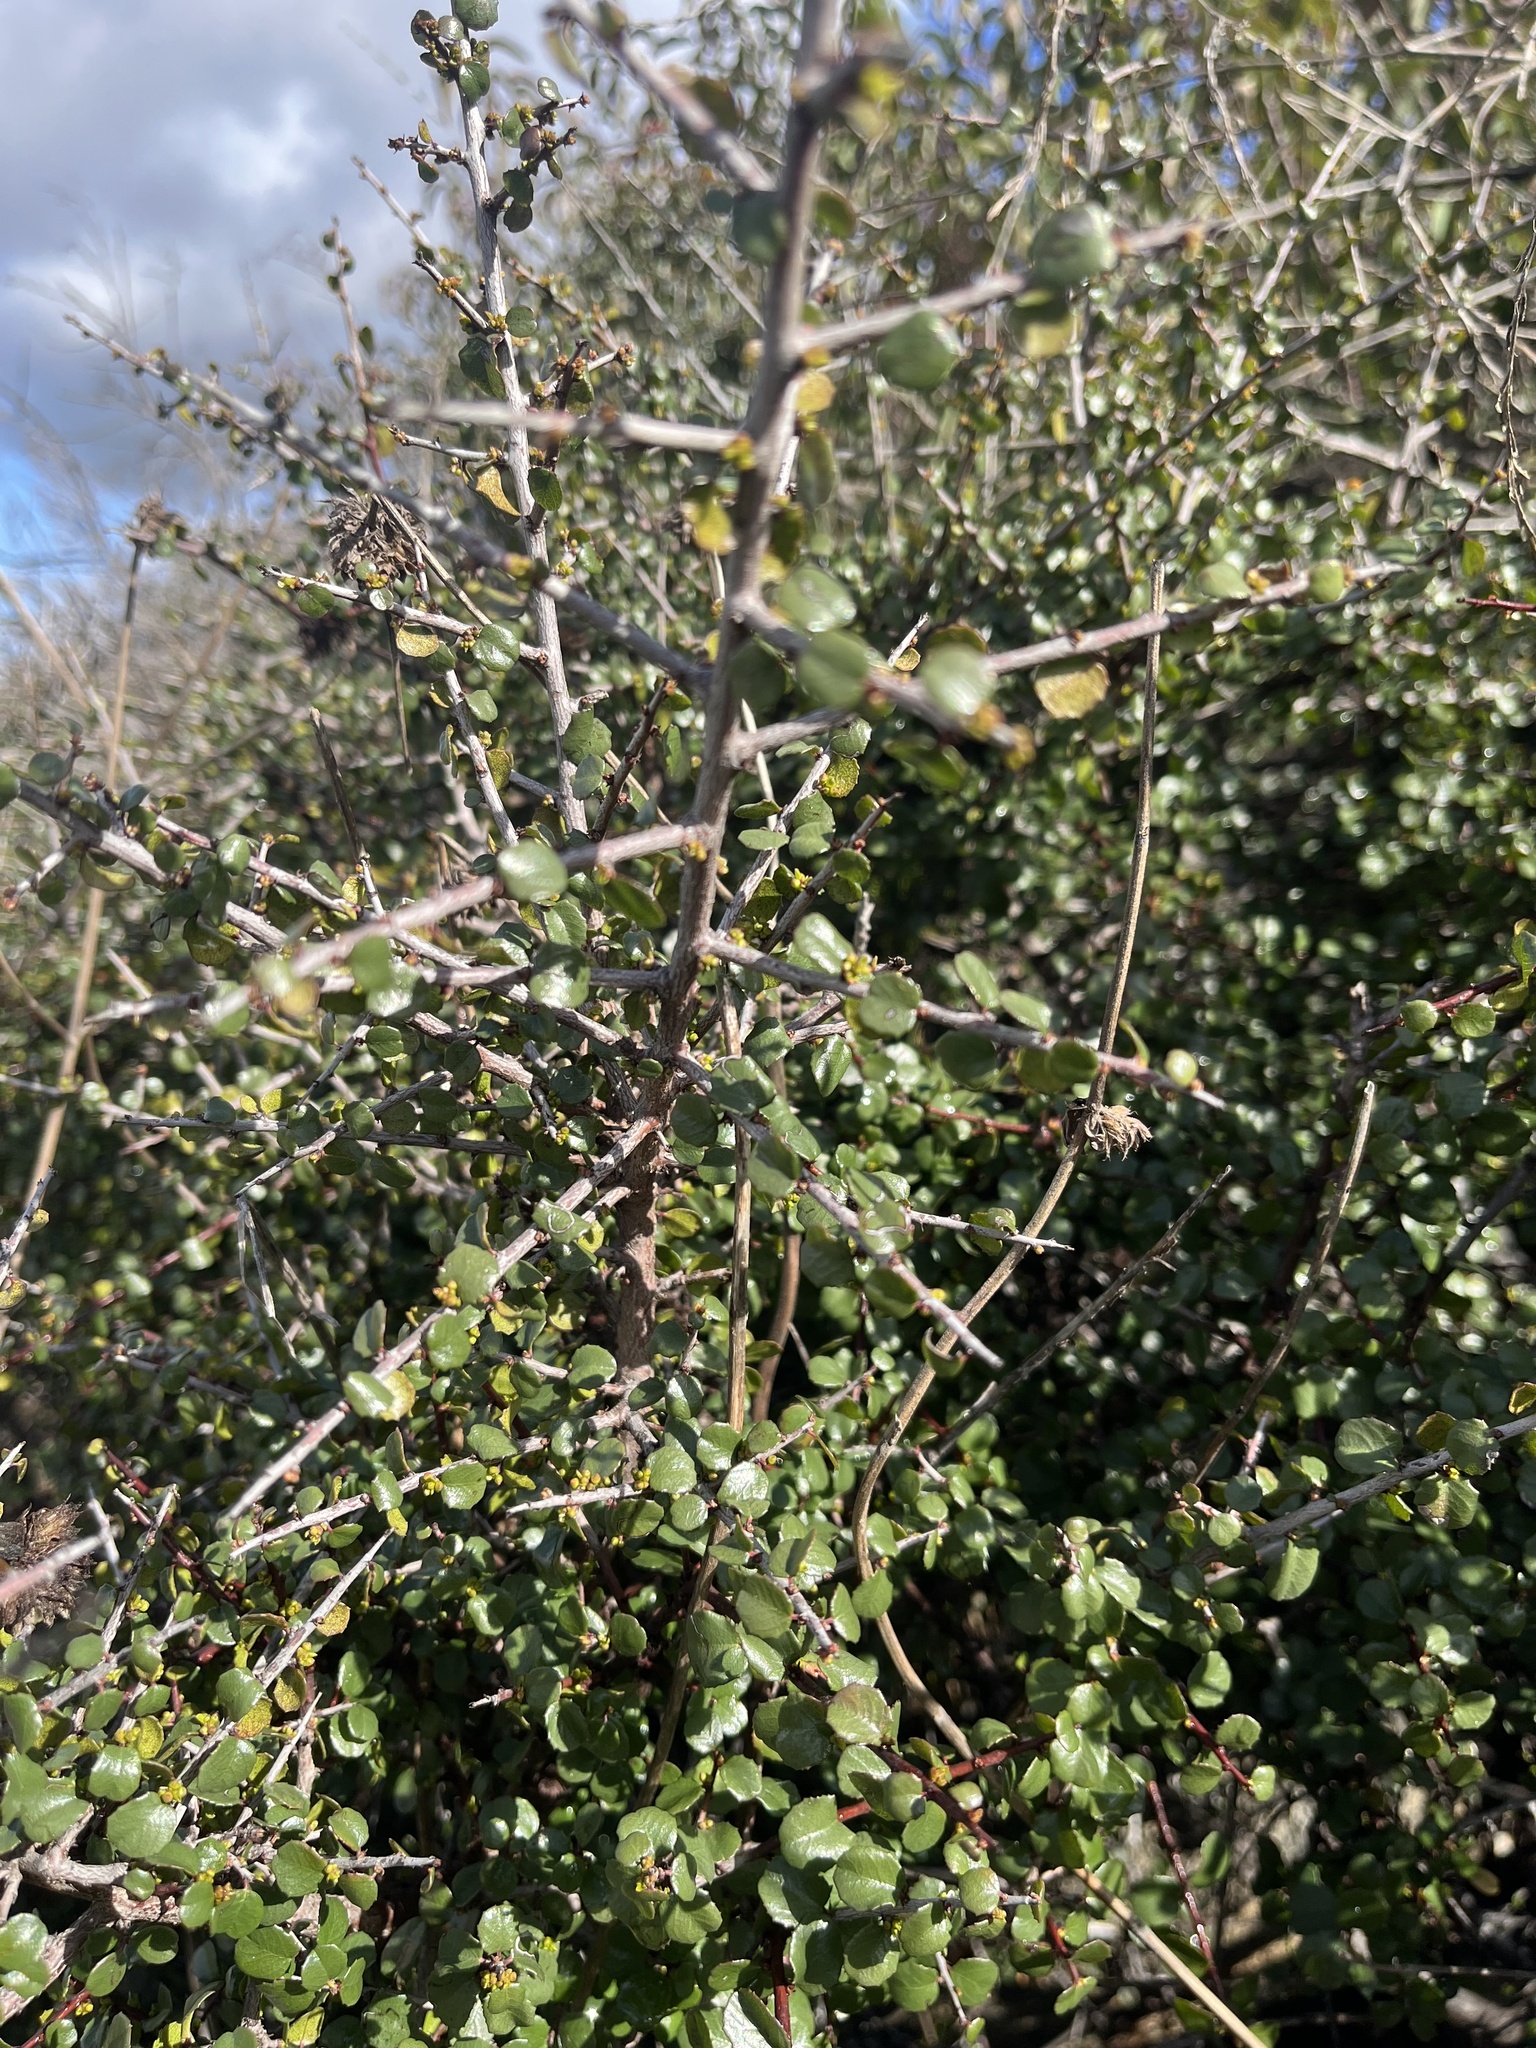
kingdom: Plantae
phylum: Tracheophyta
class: Magnoliopsida
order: Rosales
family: Rhamnaceae
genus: Endotropis
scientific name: Endotropis crocea
